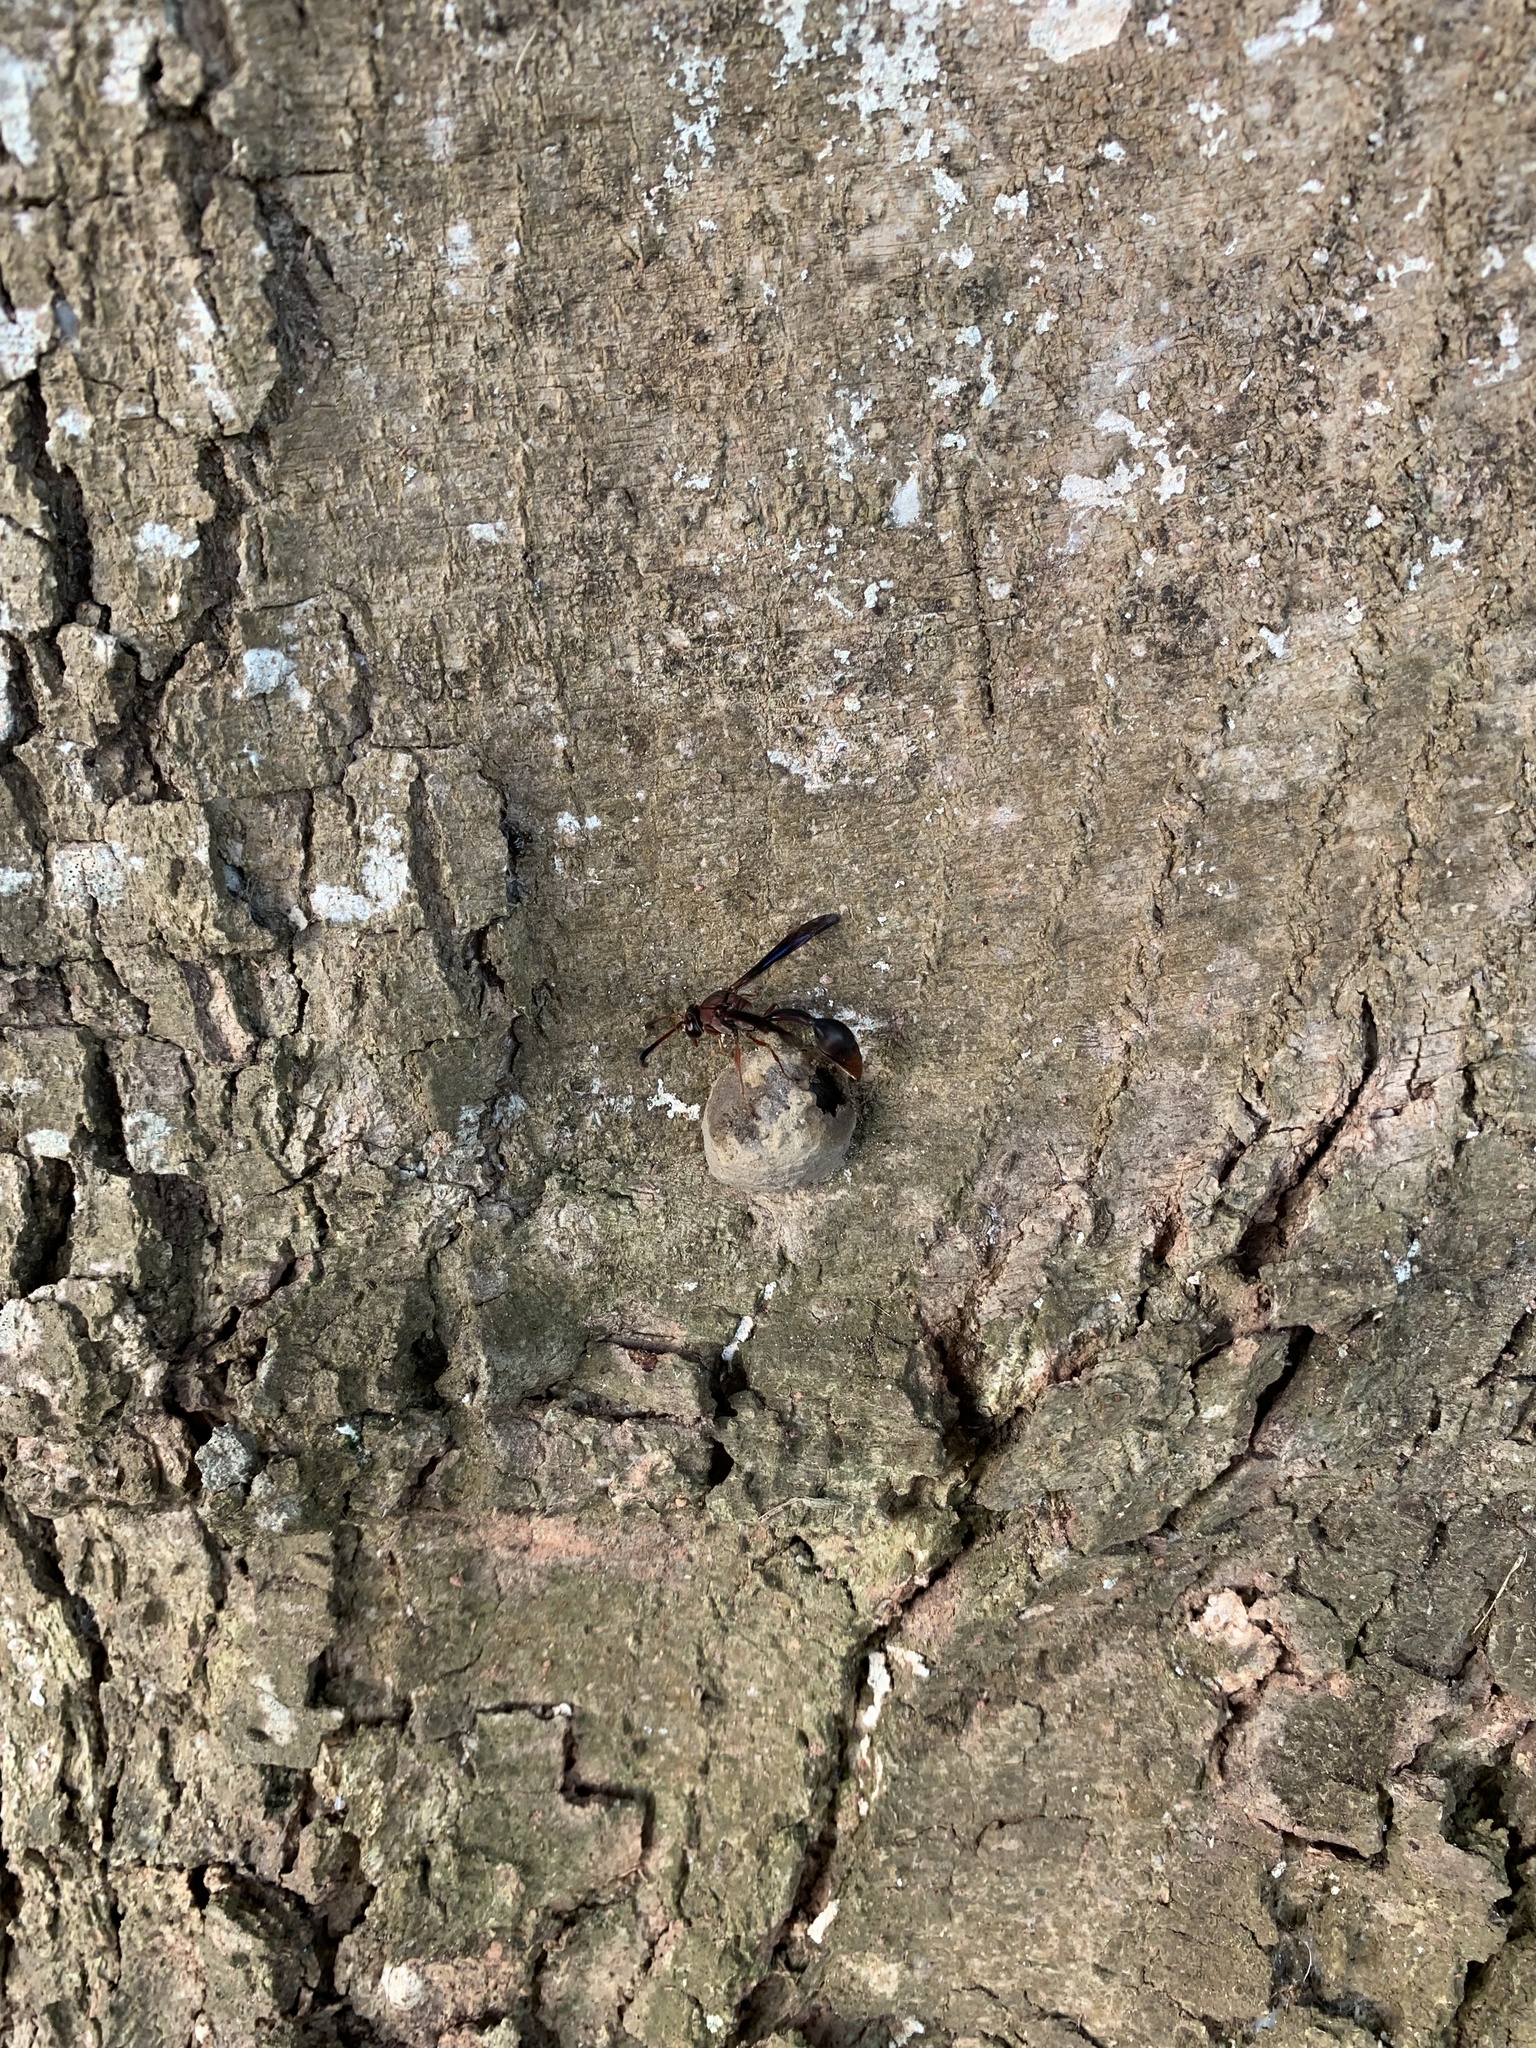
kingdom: Animalia
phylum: Arthropoda
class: Insecta
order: Hymenoptera
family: Eumenidae
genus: Zeta
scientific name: Zeta argillaceum
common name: Potter wasp
